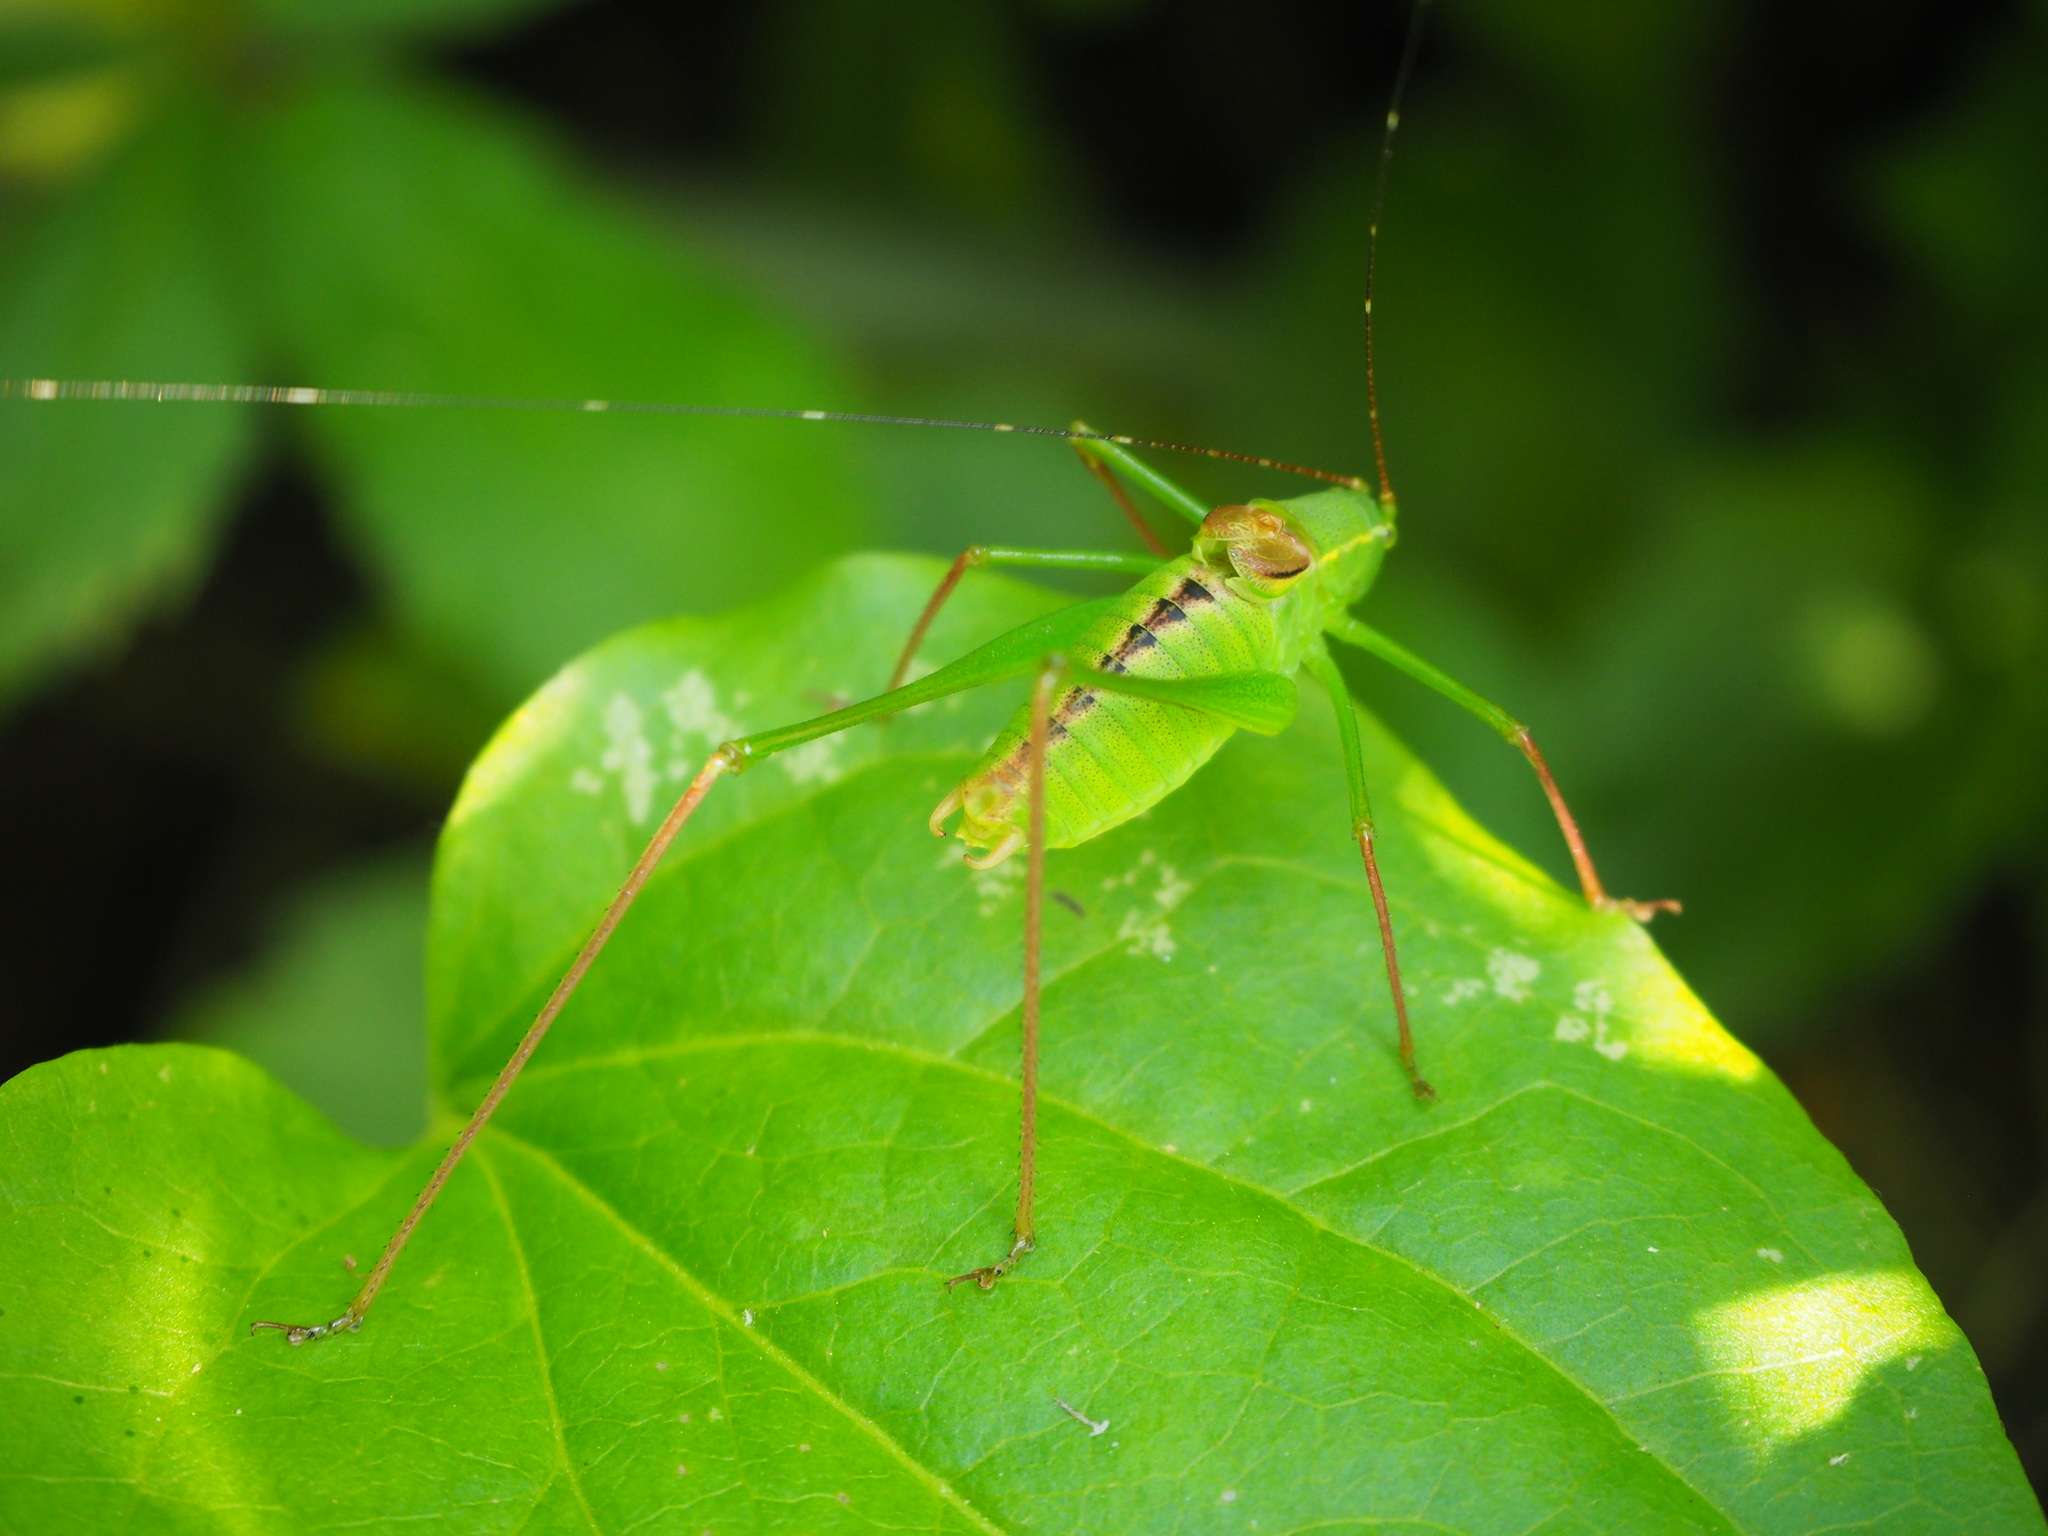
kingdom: Animalia
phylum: Arthropoda
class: Insecta
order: Orthoptera
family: Tettigoniidae
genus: Leptophyes
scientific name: Leptophyes laticauda
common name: Long-tailed speckled bush-cricket
